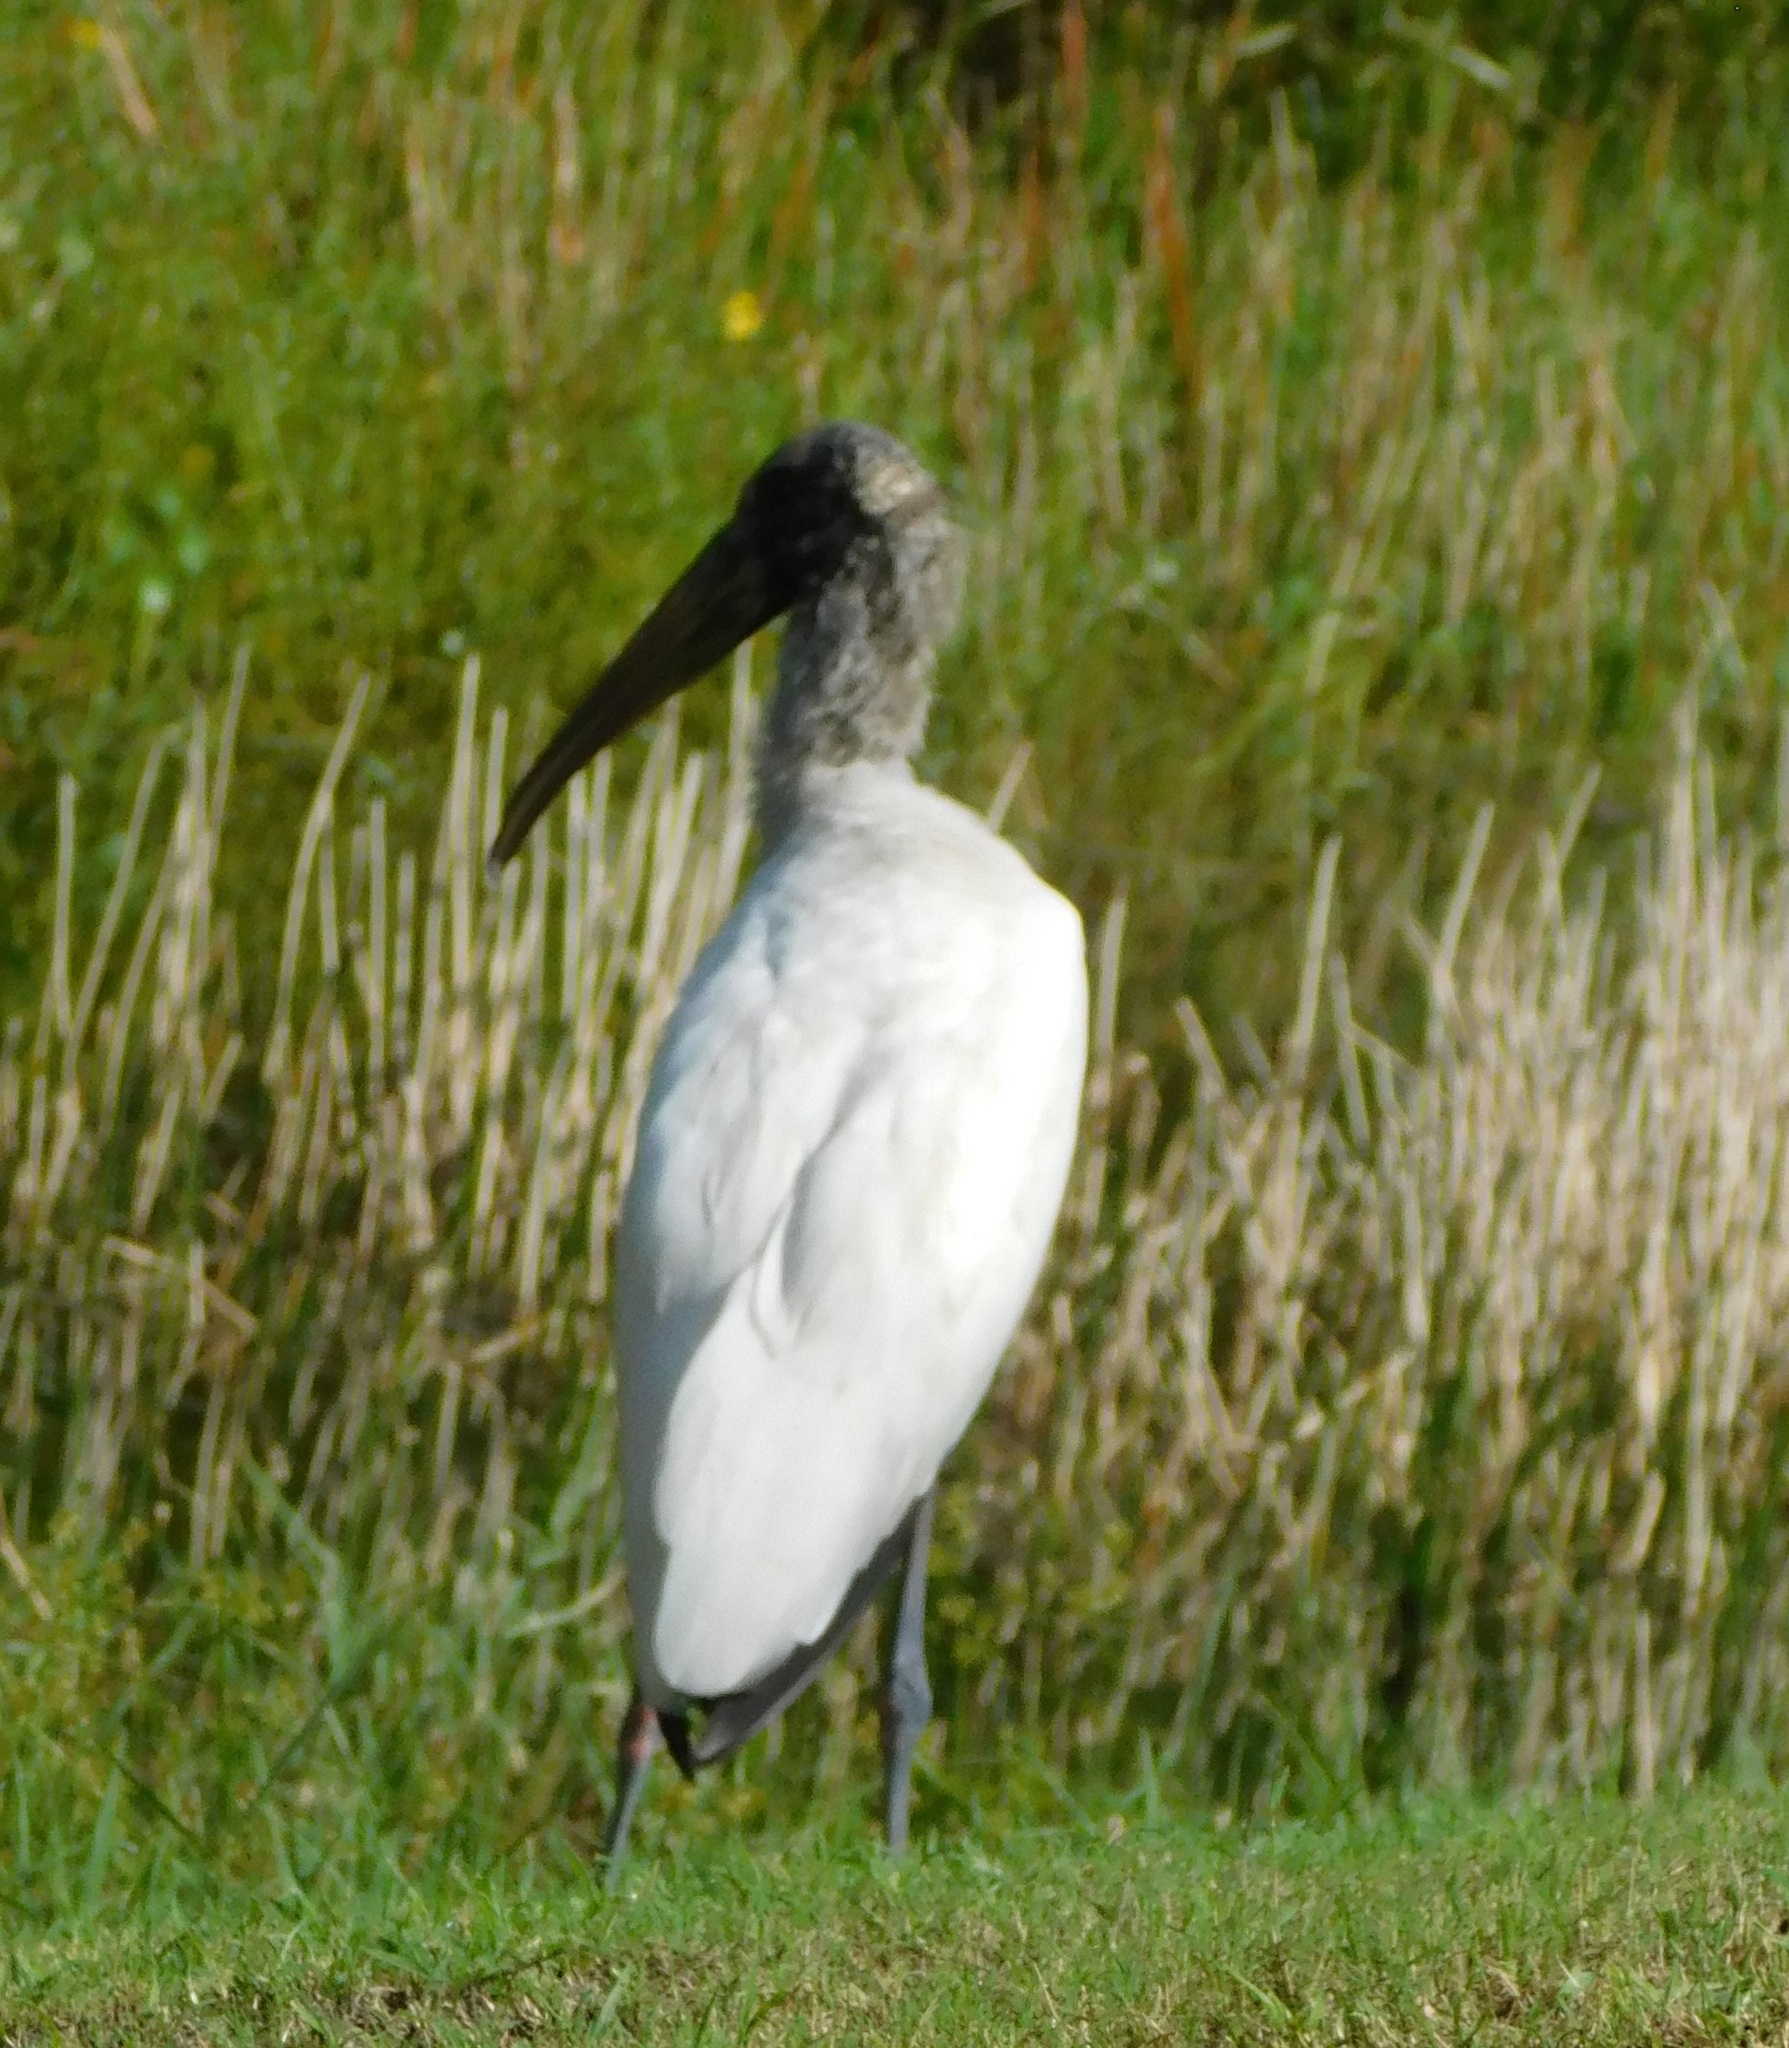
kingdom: Animalia
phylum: Chordata
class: Aves
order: Ciconiiformes
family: Ciconiidae
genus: Mycteria
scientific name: Mycteria americana
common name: Wood stork
